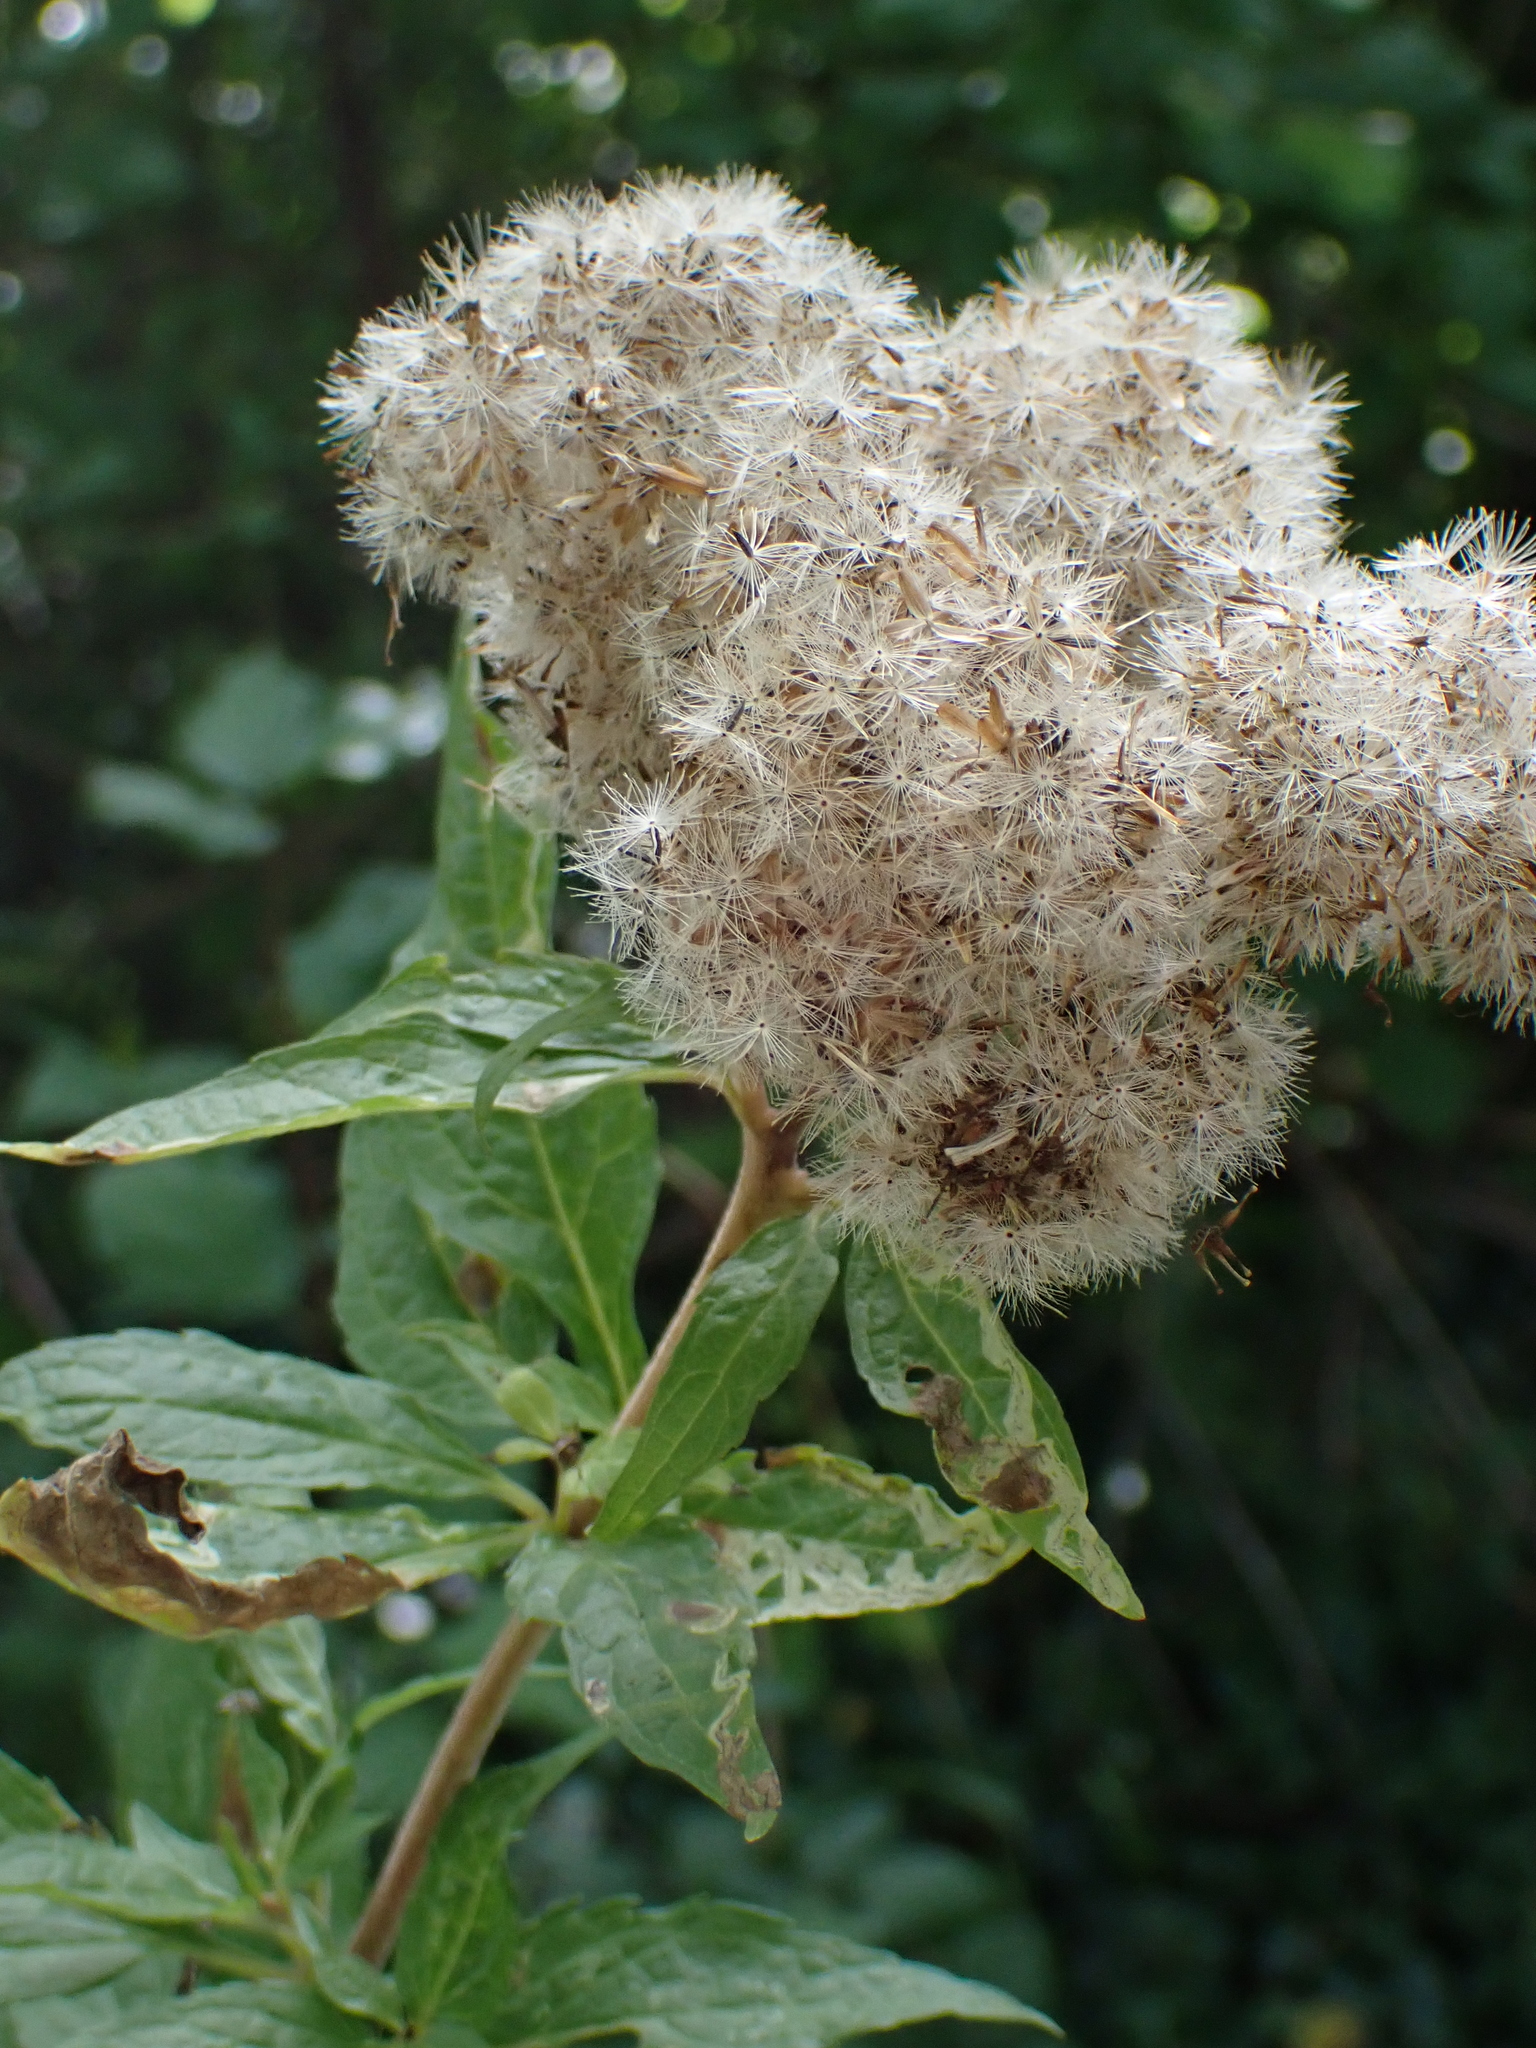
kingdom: Plantae
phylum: Tracheophyta
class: Magnoliopsida
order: Asterales
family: Asteraceae
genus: Eupatorium
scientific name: Eupatorium cannabinum
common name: Hemp-agrimony
